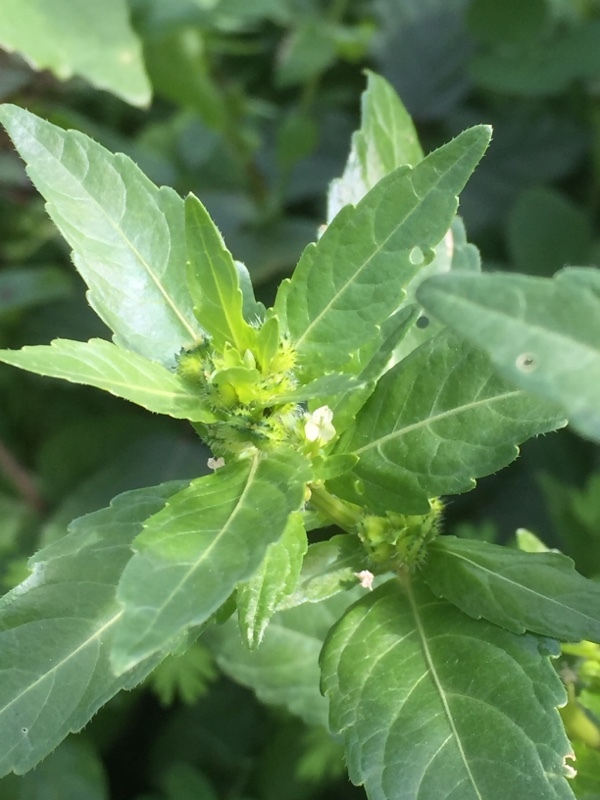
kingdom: Plantae
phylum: Tracheophyta
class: Magnoliopsida
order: Malpighiales
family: Euphorbiaceae
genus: Mercurialis
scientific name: Mercurialis annua
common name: Annual mercury
